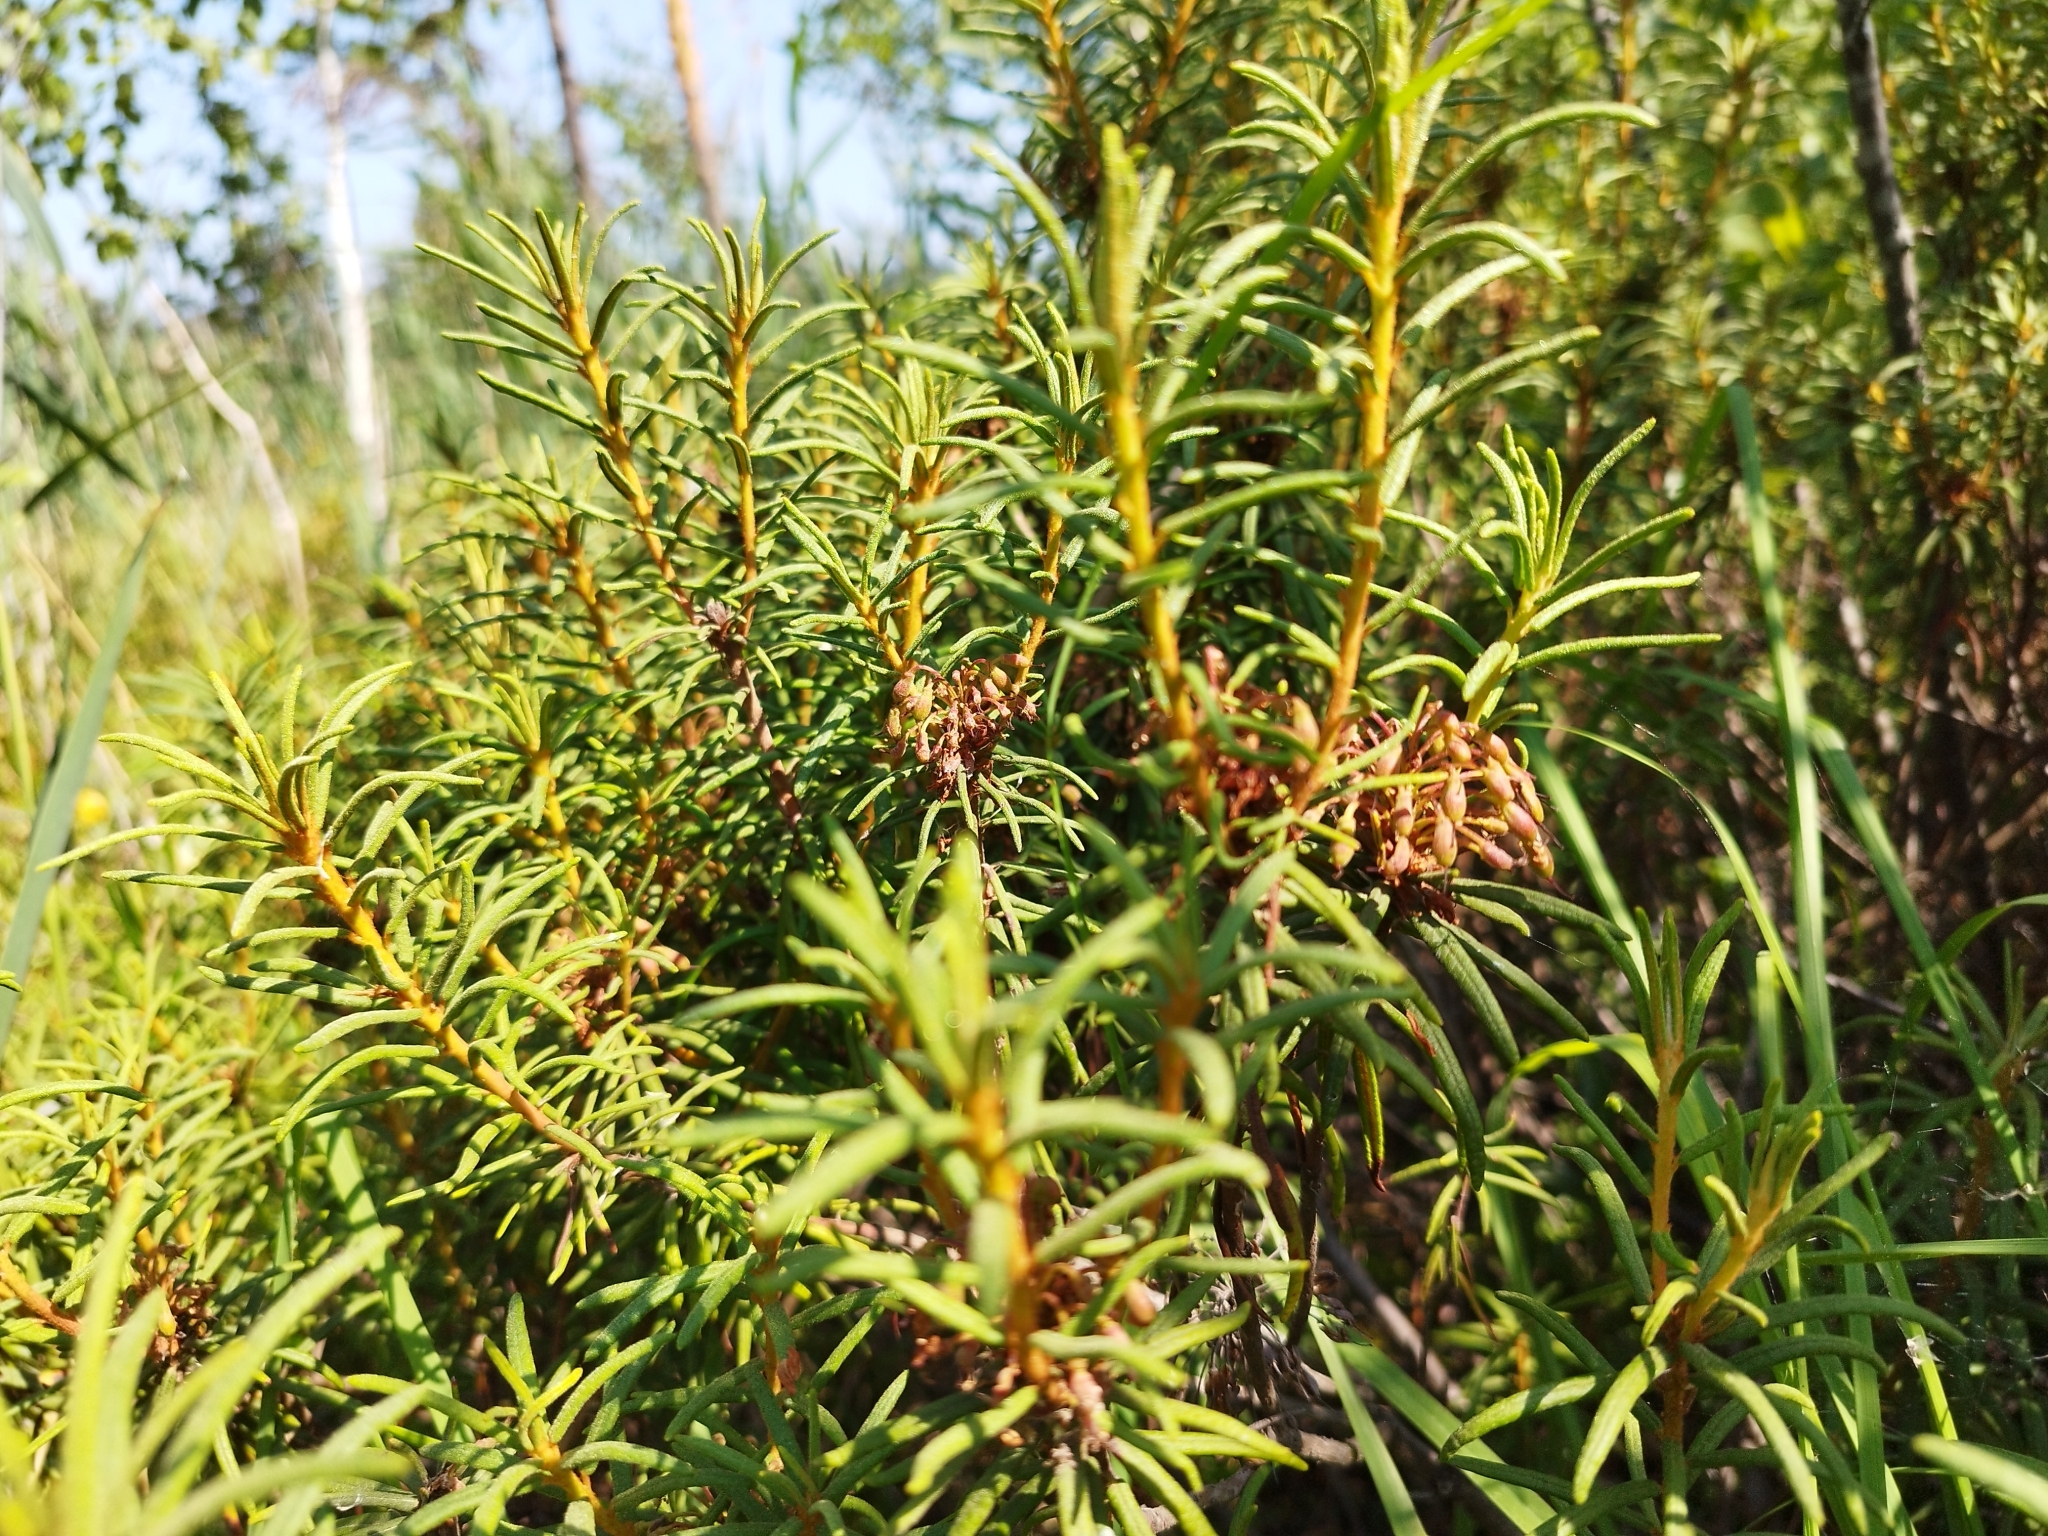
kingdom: Plantae
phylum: Tracheophyta
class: Magnoliopsida
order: Ericales
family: Ericaceae
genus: Rhododendron
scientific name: Rhododendron tomentosum
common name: Marsh labrador tea
